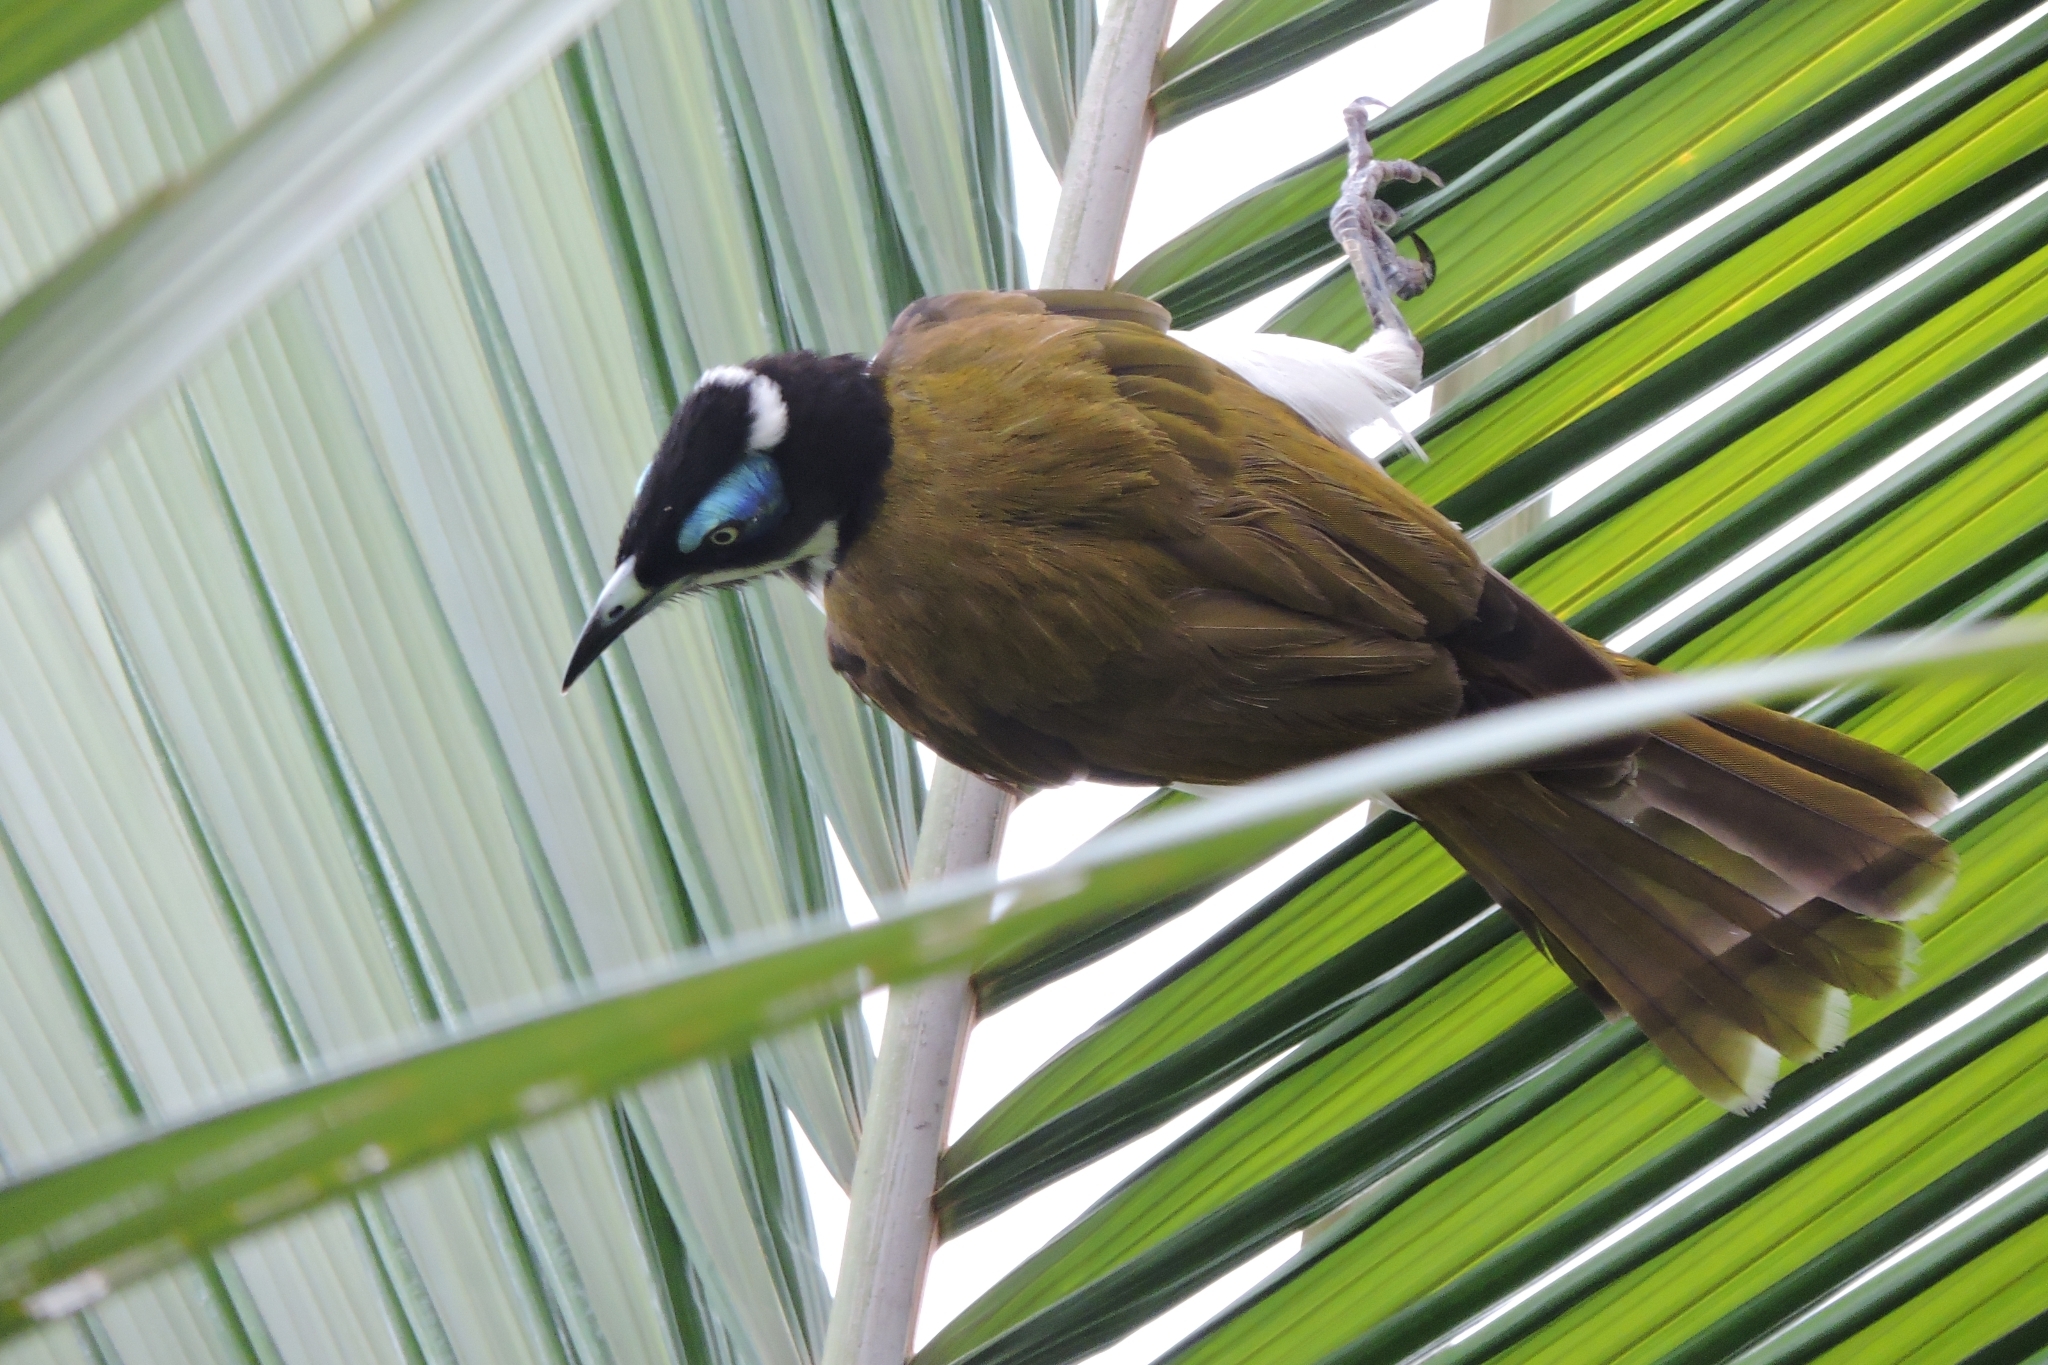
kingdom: Animalia
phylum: Chordata
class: Aves
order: Passeriformes
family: Meliphagidae
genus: Entomyzon
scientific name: Entomyzon cyanotis
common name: Blue-faced honeyeater
